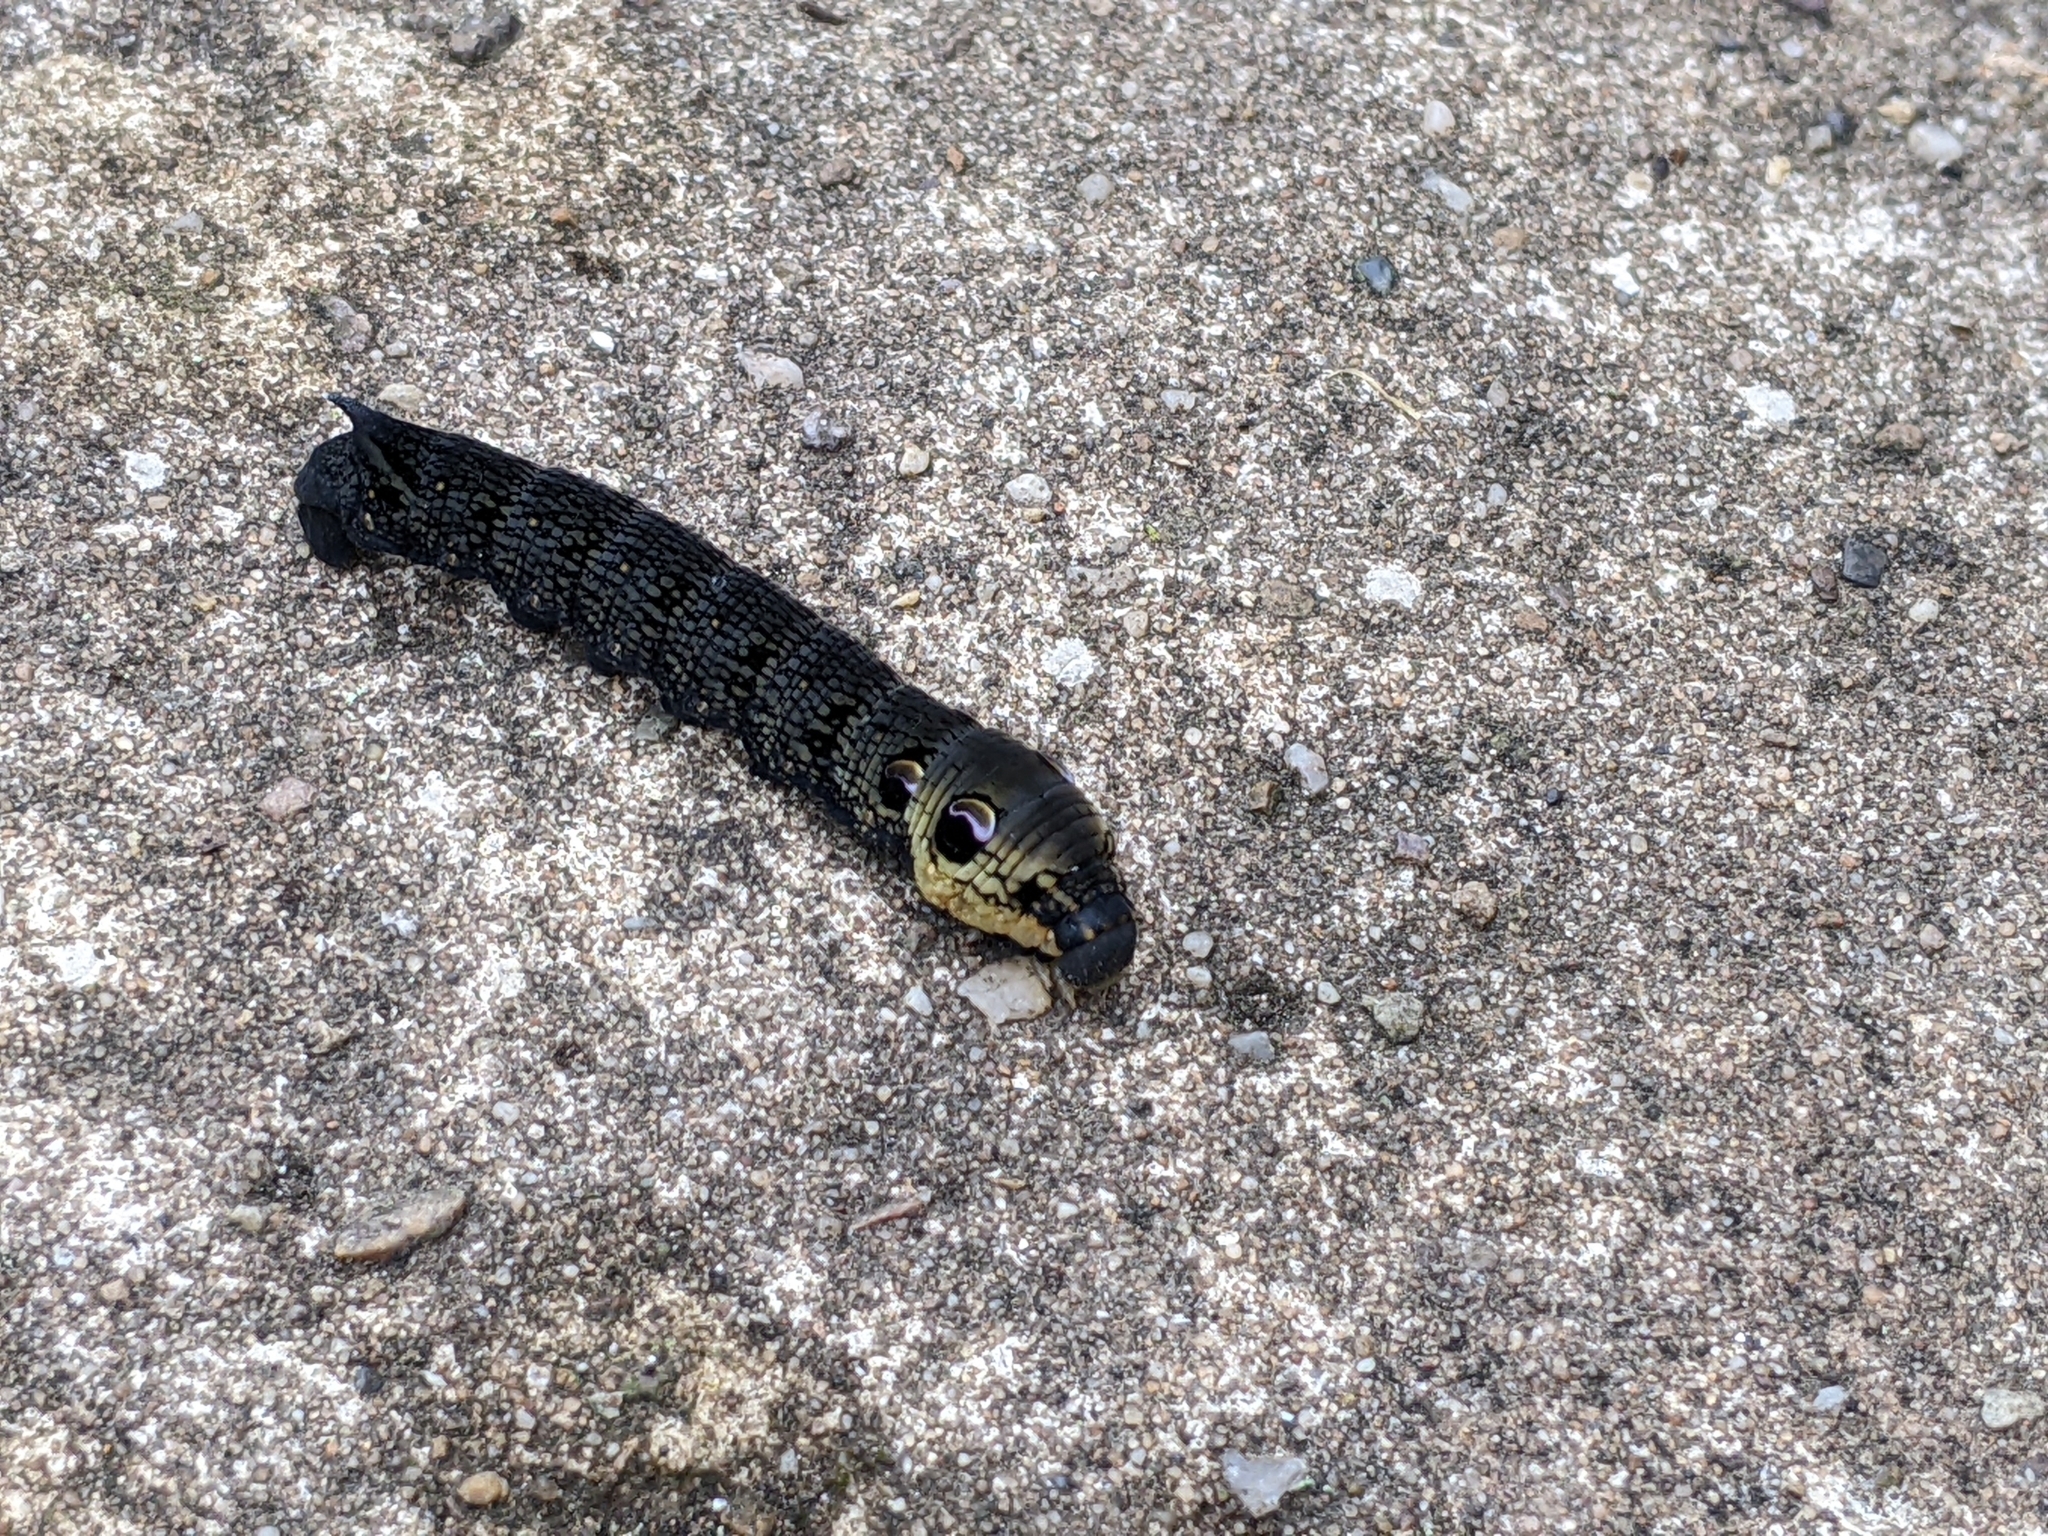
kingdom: Animalia
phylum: Arthropoda
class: Insecta
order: Lepidoptera
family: Sphingidae
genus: Deilephila
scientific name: Deilephila elpenor
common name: Elephant hawk-moth
